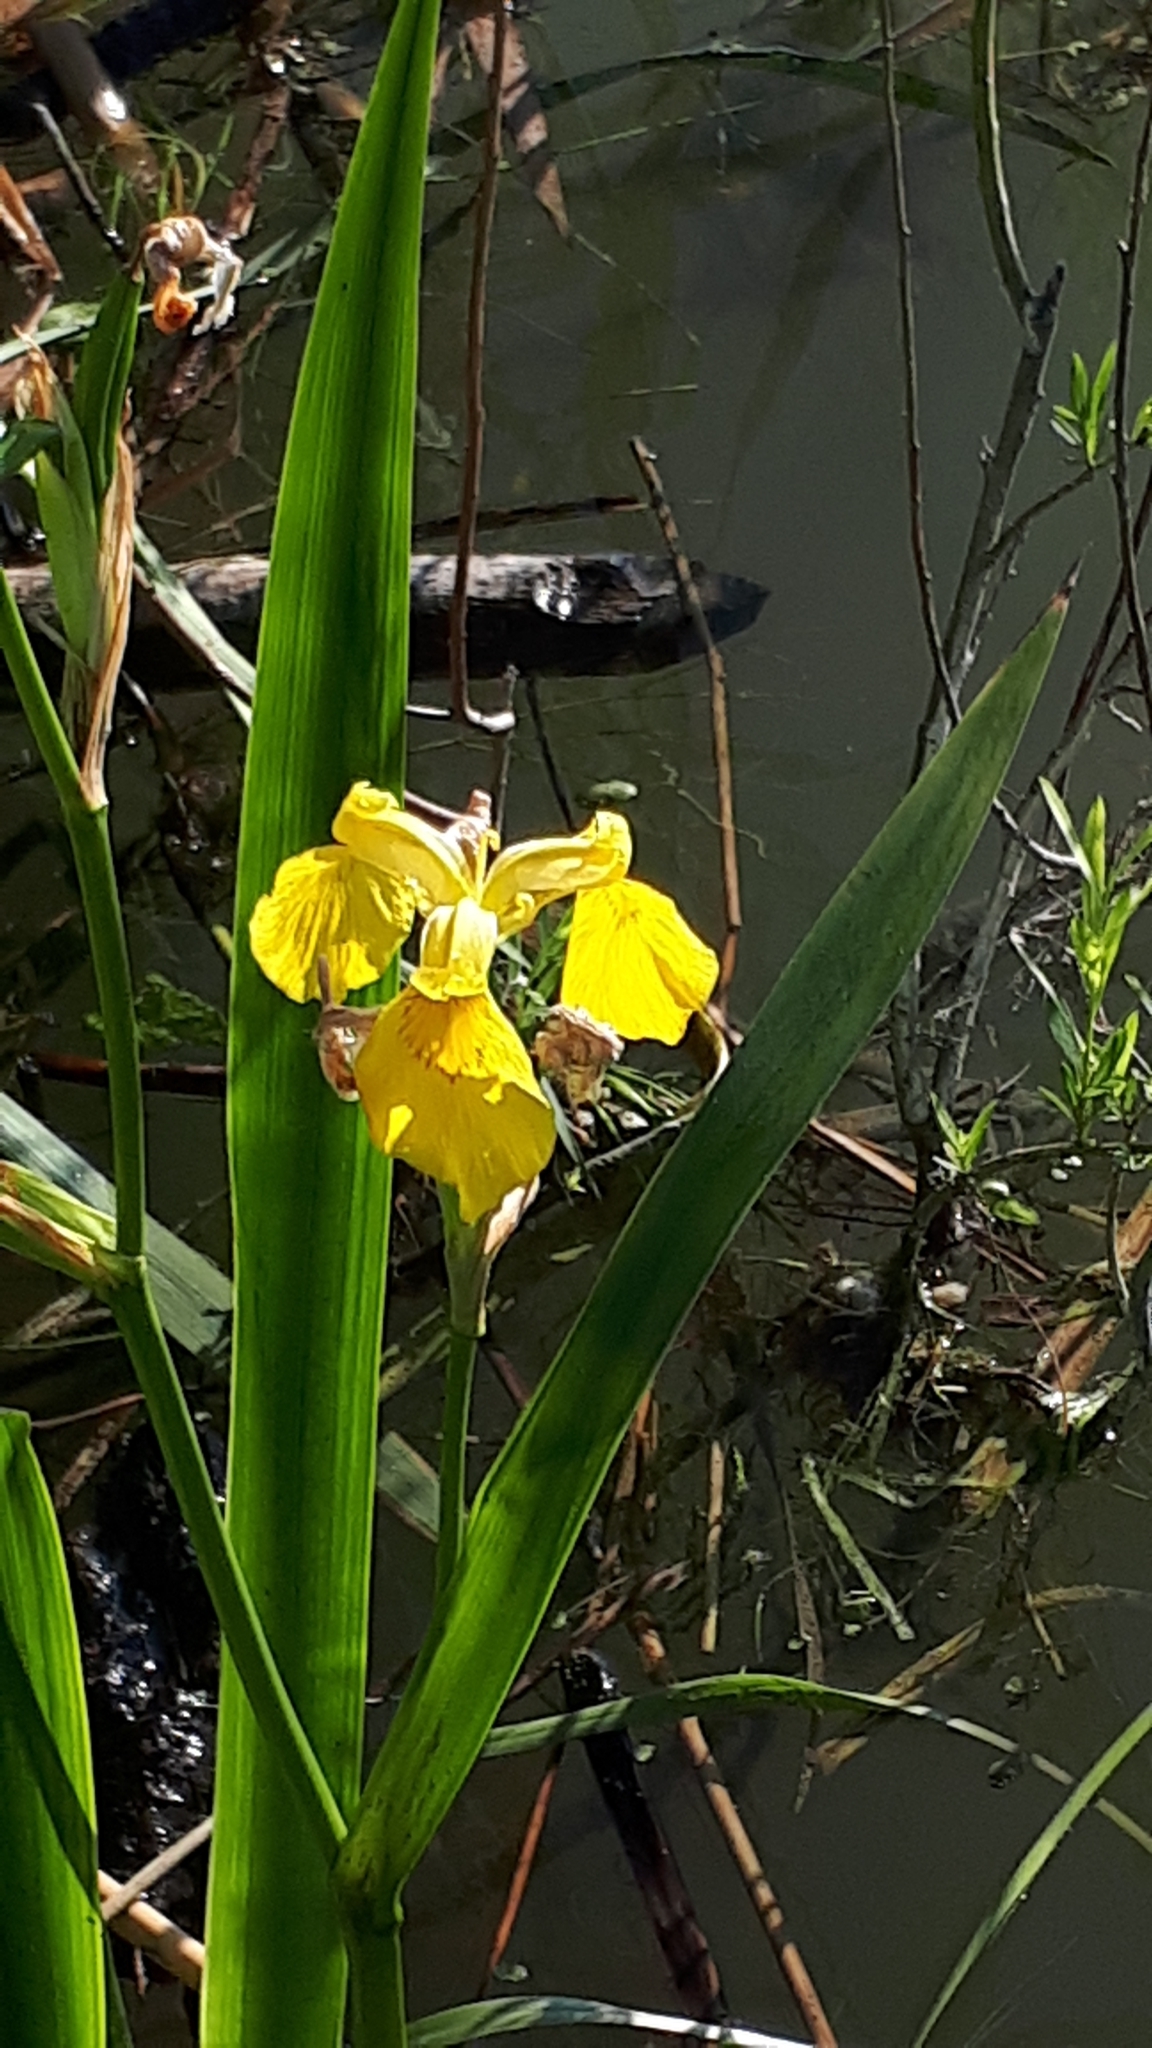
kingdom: Plantae
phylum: Tracheophyta
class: Liliopsida
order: Asparagales
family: Iridaceae
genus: Iris
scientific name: Iris pseudacorus
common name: Yellow flag
